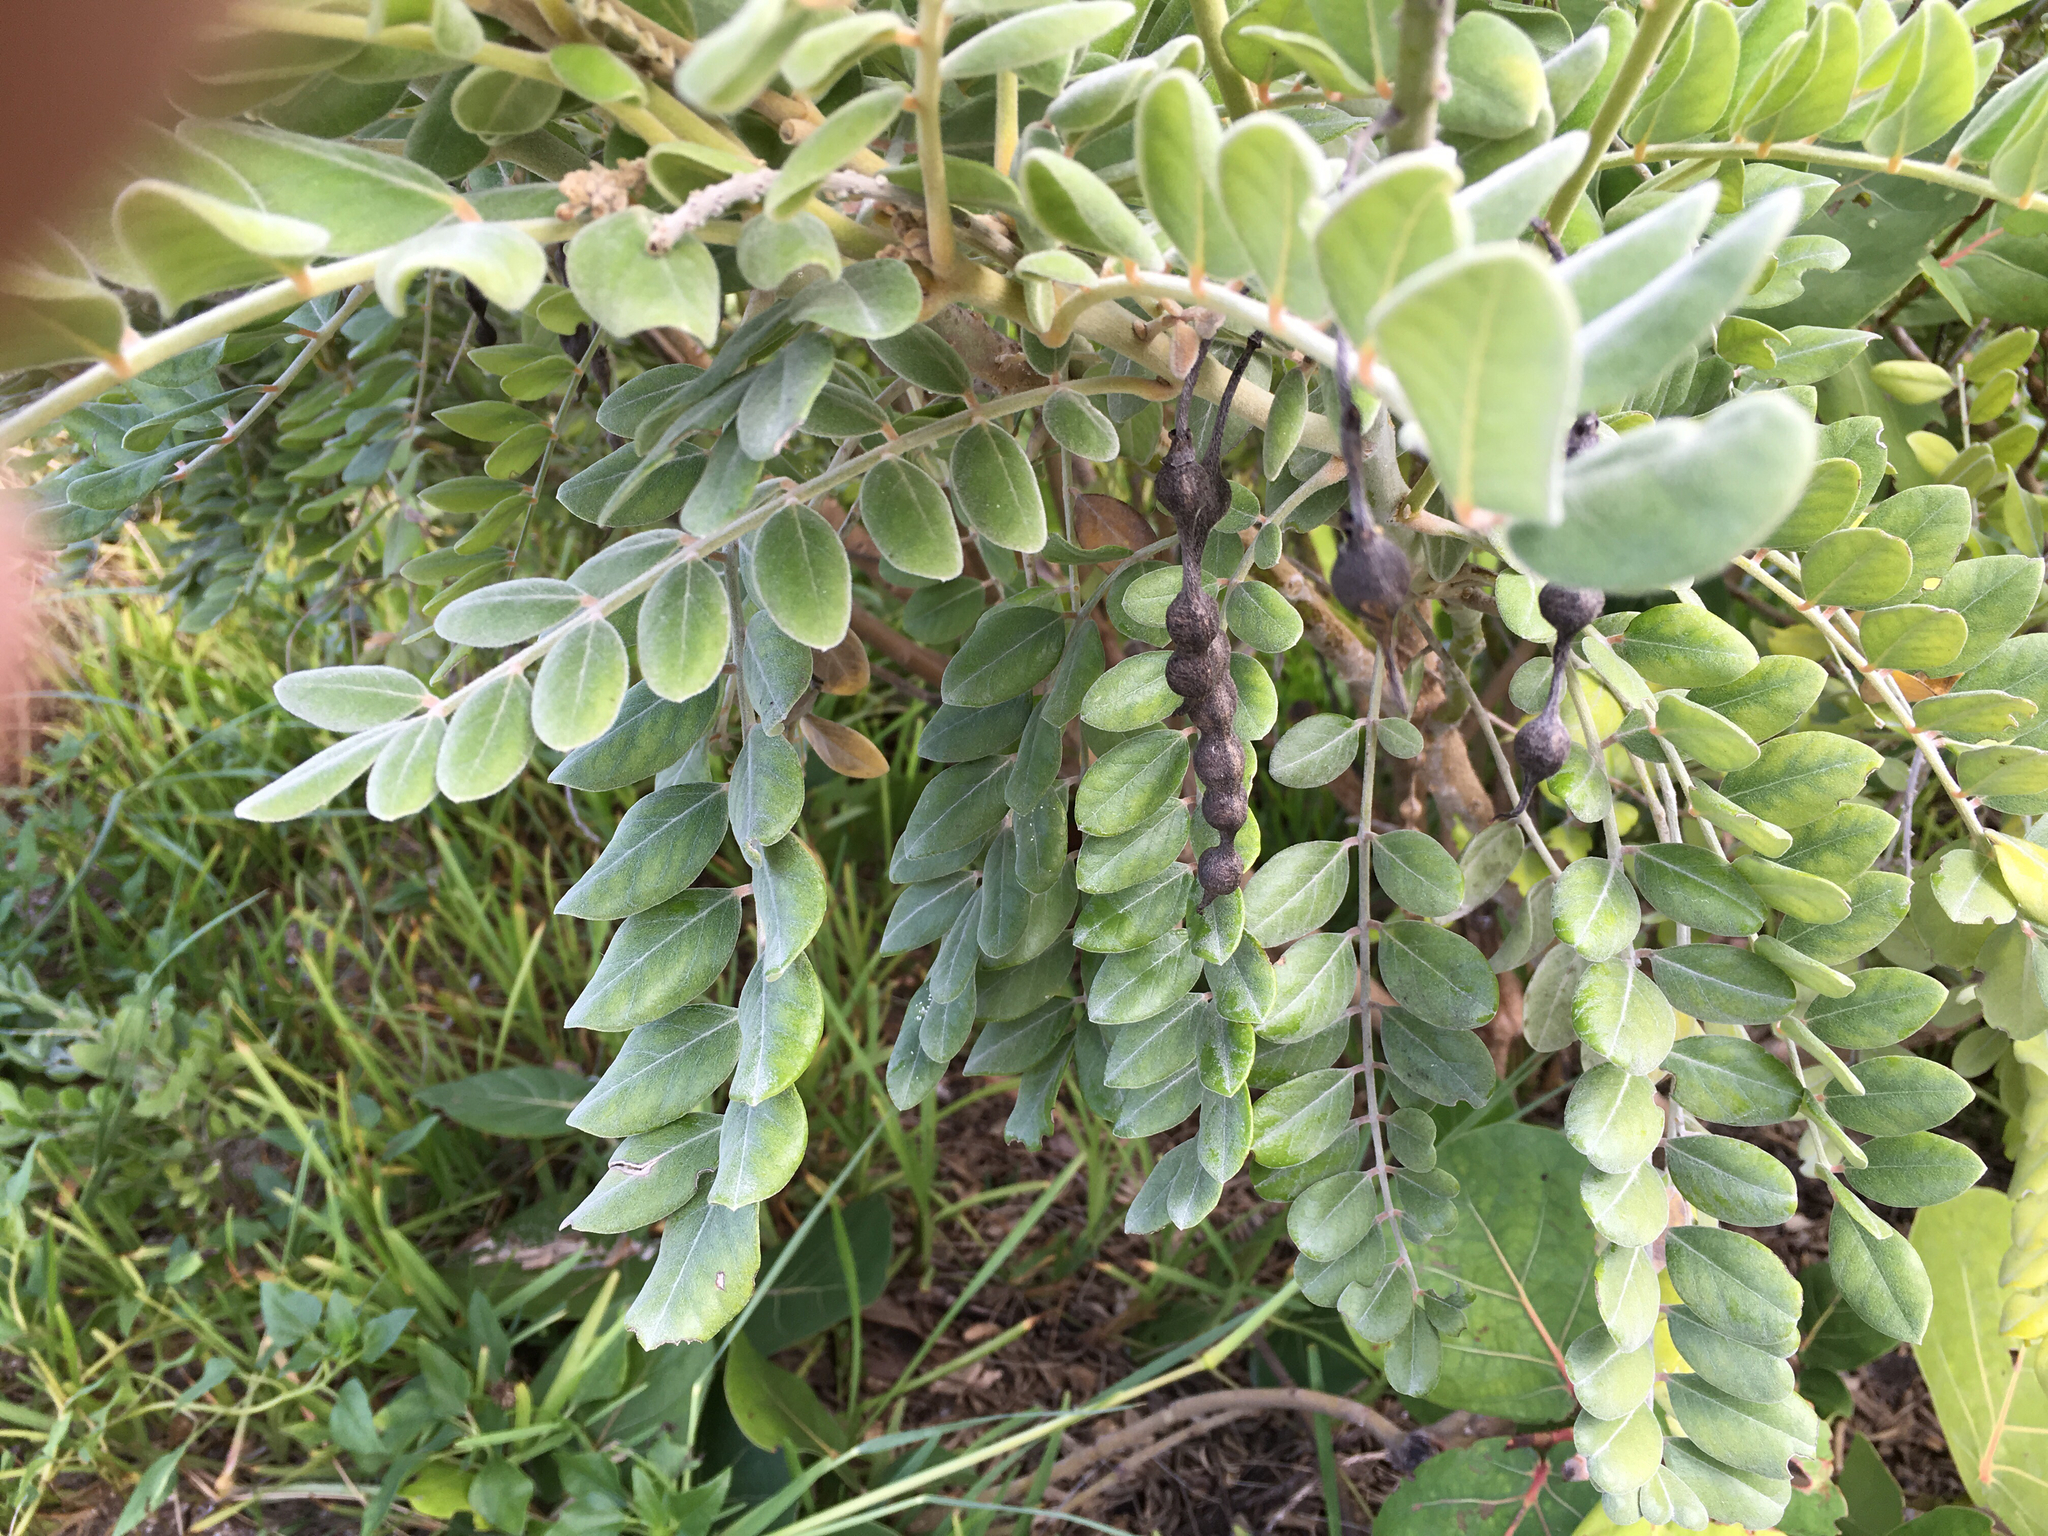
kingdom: Plantae
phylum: Tracheophyta
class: Magnoliopsida
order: Fabales
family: Fabaceae
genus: Sophora
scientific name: Sophora tomentosa
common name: Yellow necklacepod
